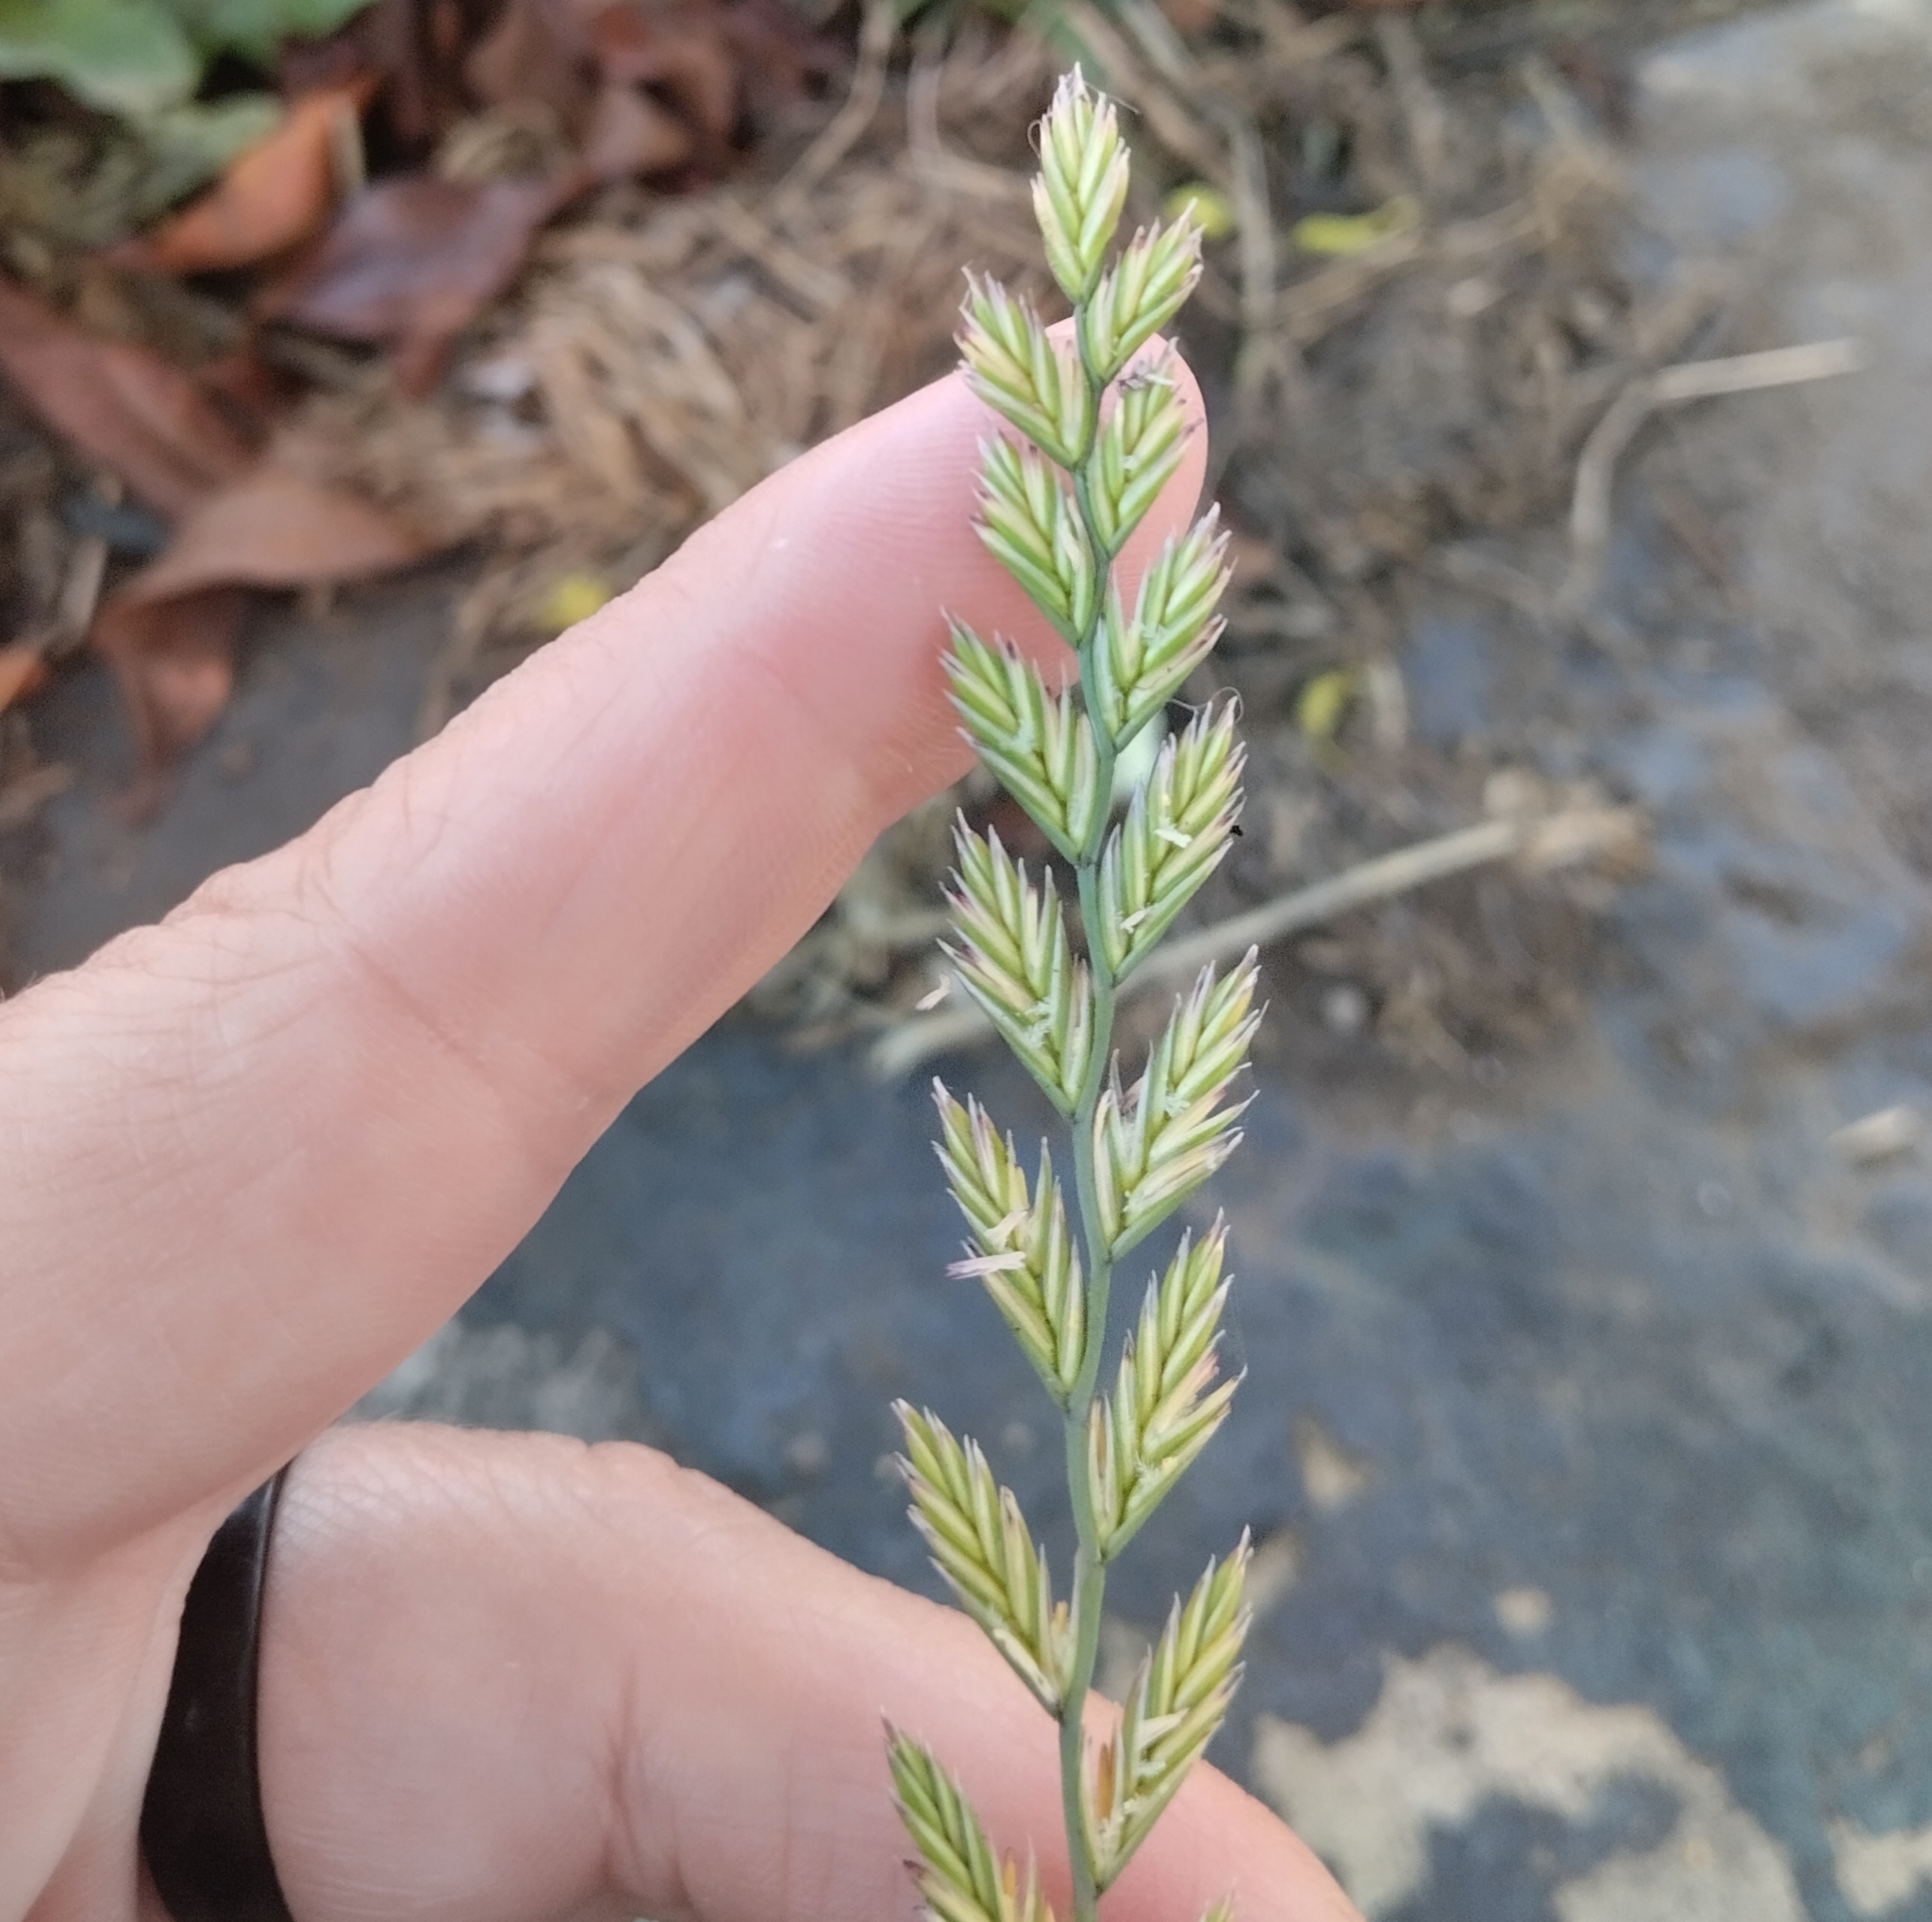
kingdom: Plantae
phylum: Tracheophyta
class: Liliopsida
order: Poales
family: Poaceae
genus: Lolium
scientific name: Lolium perenne
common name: Perennial ryegrass
